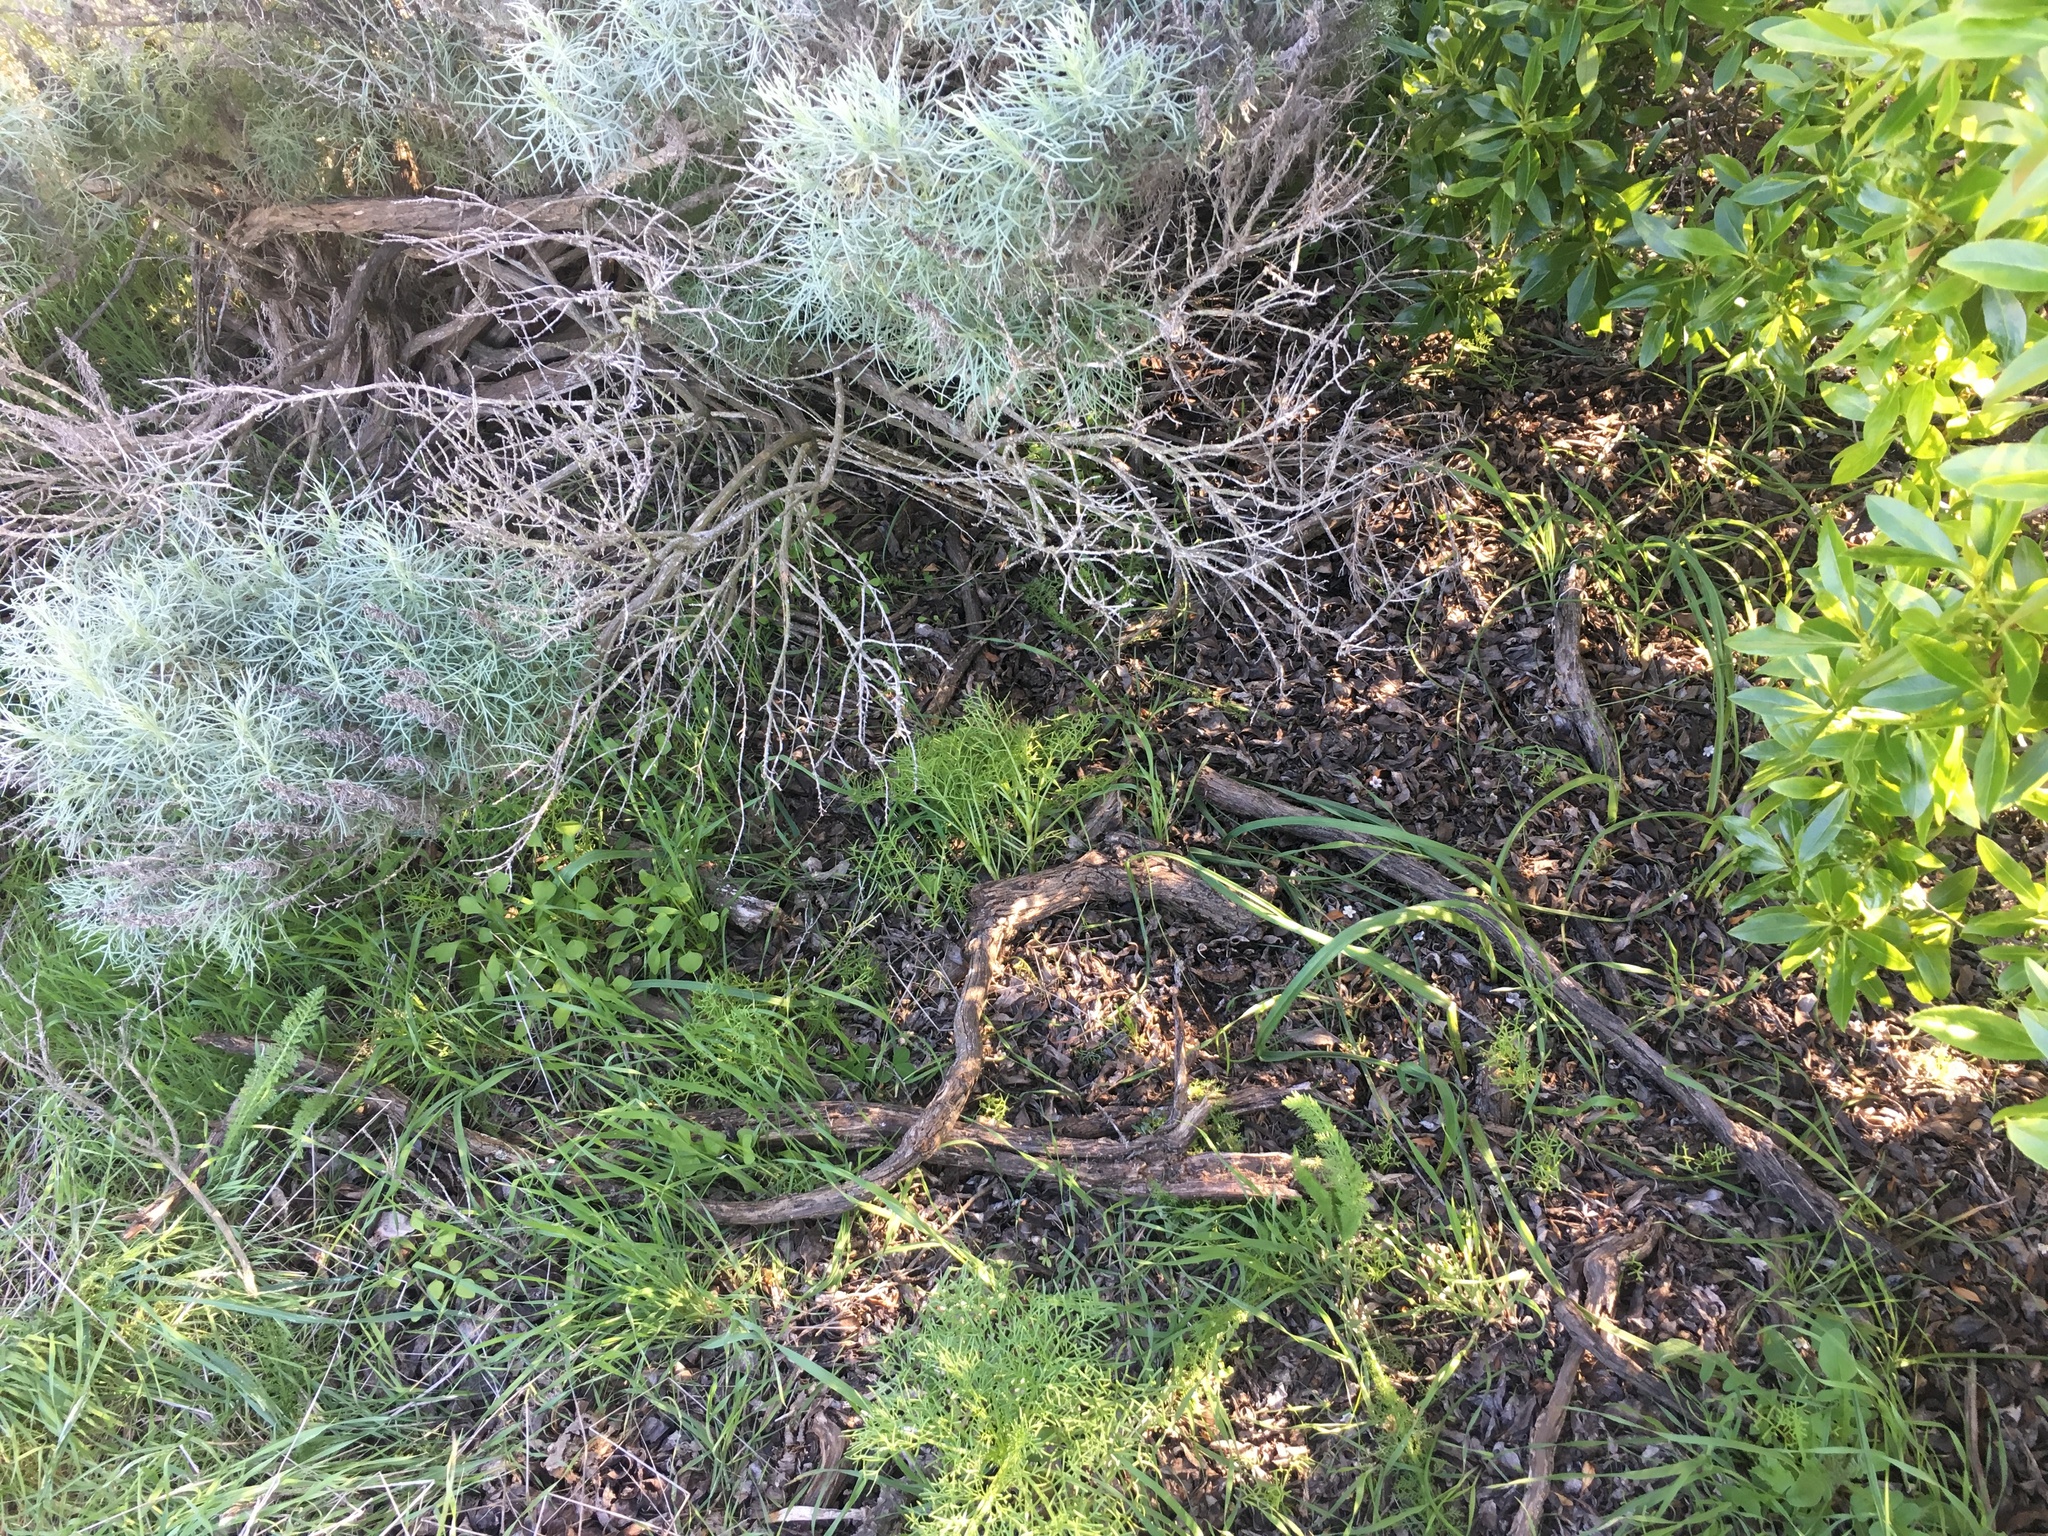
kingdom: Plantae
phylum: Tracheophyta
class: Magnoliopsida
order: Asterales
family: Asteraceae
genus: Artemisia
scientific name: Artemisia californica
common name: California sagebrush
